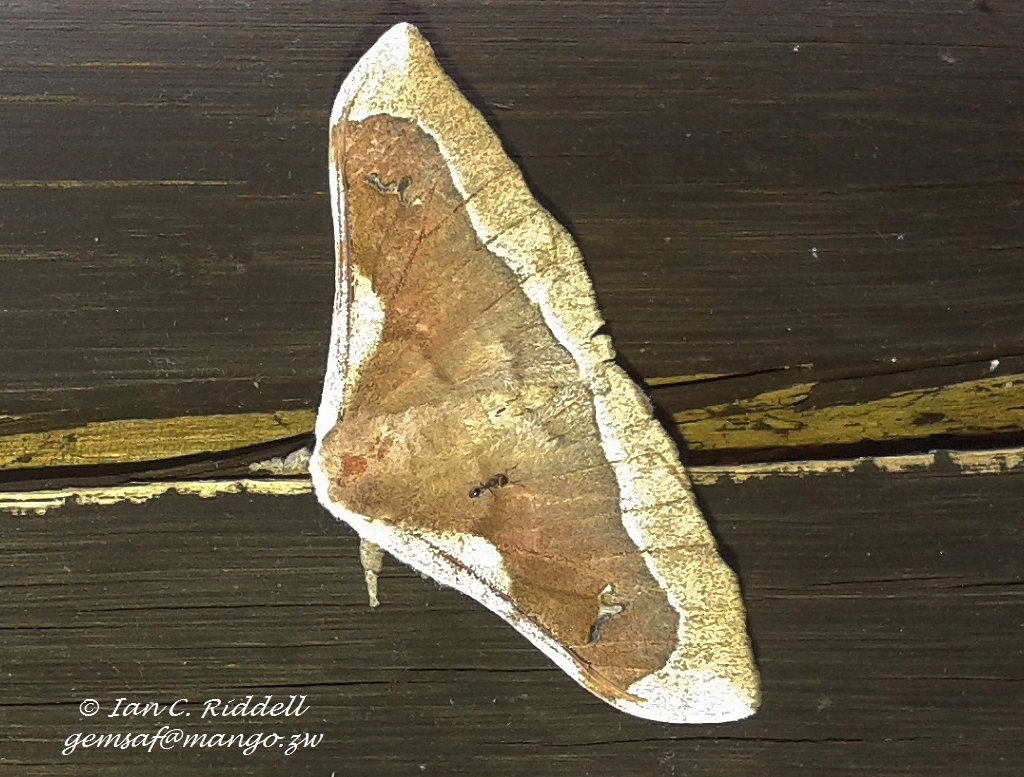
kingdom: Animalia
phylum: Arthropoda
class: Insecta
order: Lepidoptera
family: Saturniidae
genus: Ludia
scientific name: Ludia delegorguei
